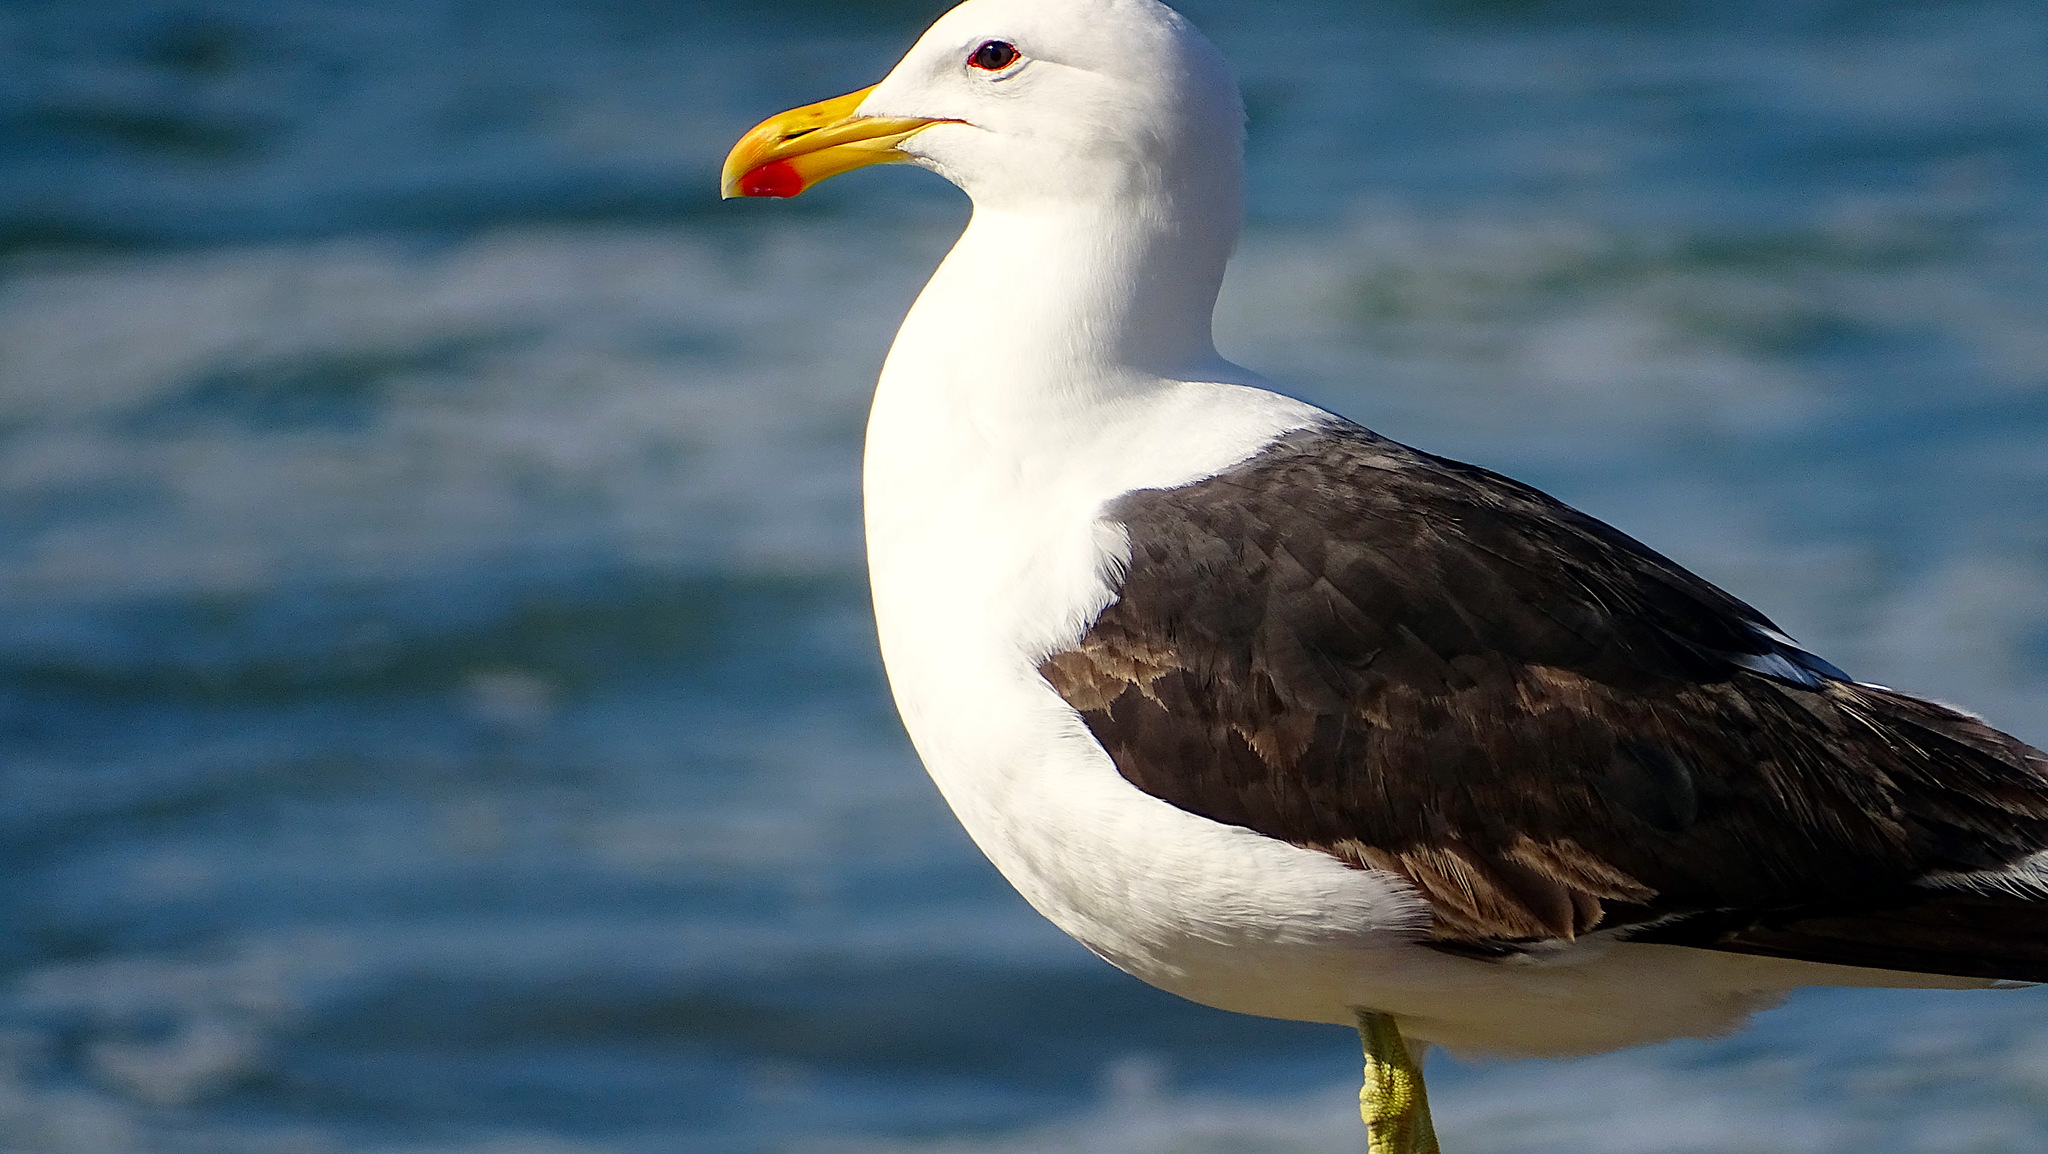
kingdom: Animalia
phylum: Chordata
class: Aves
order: Charadriiformes
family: Laridae
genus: Larus
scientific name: Larus dominicanus
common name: Kelp gull
